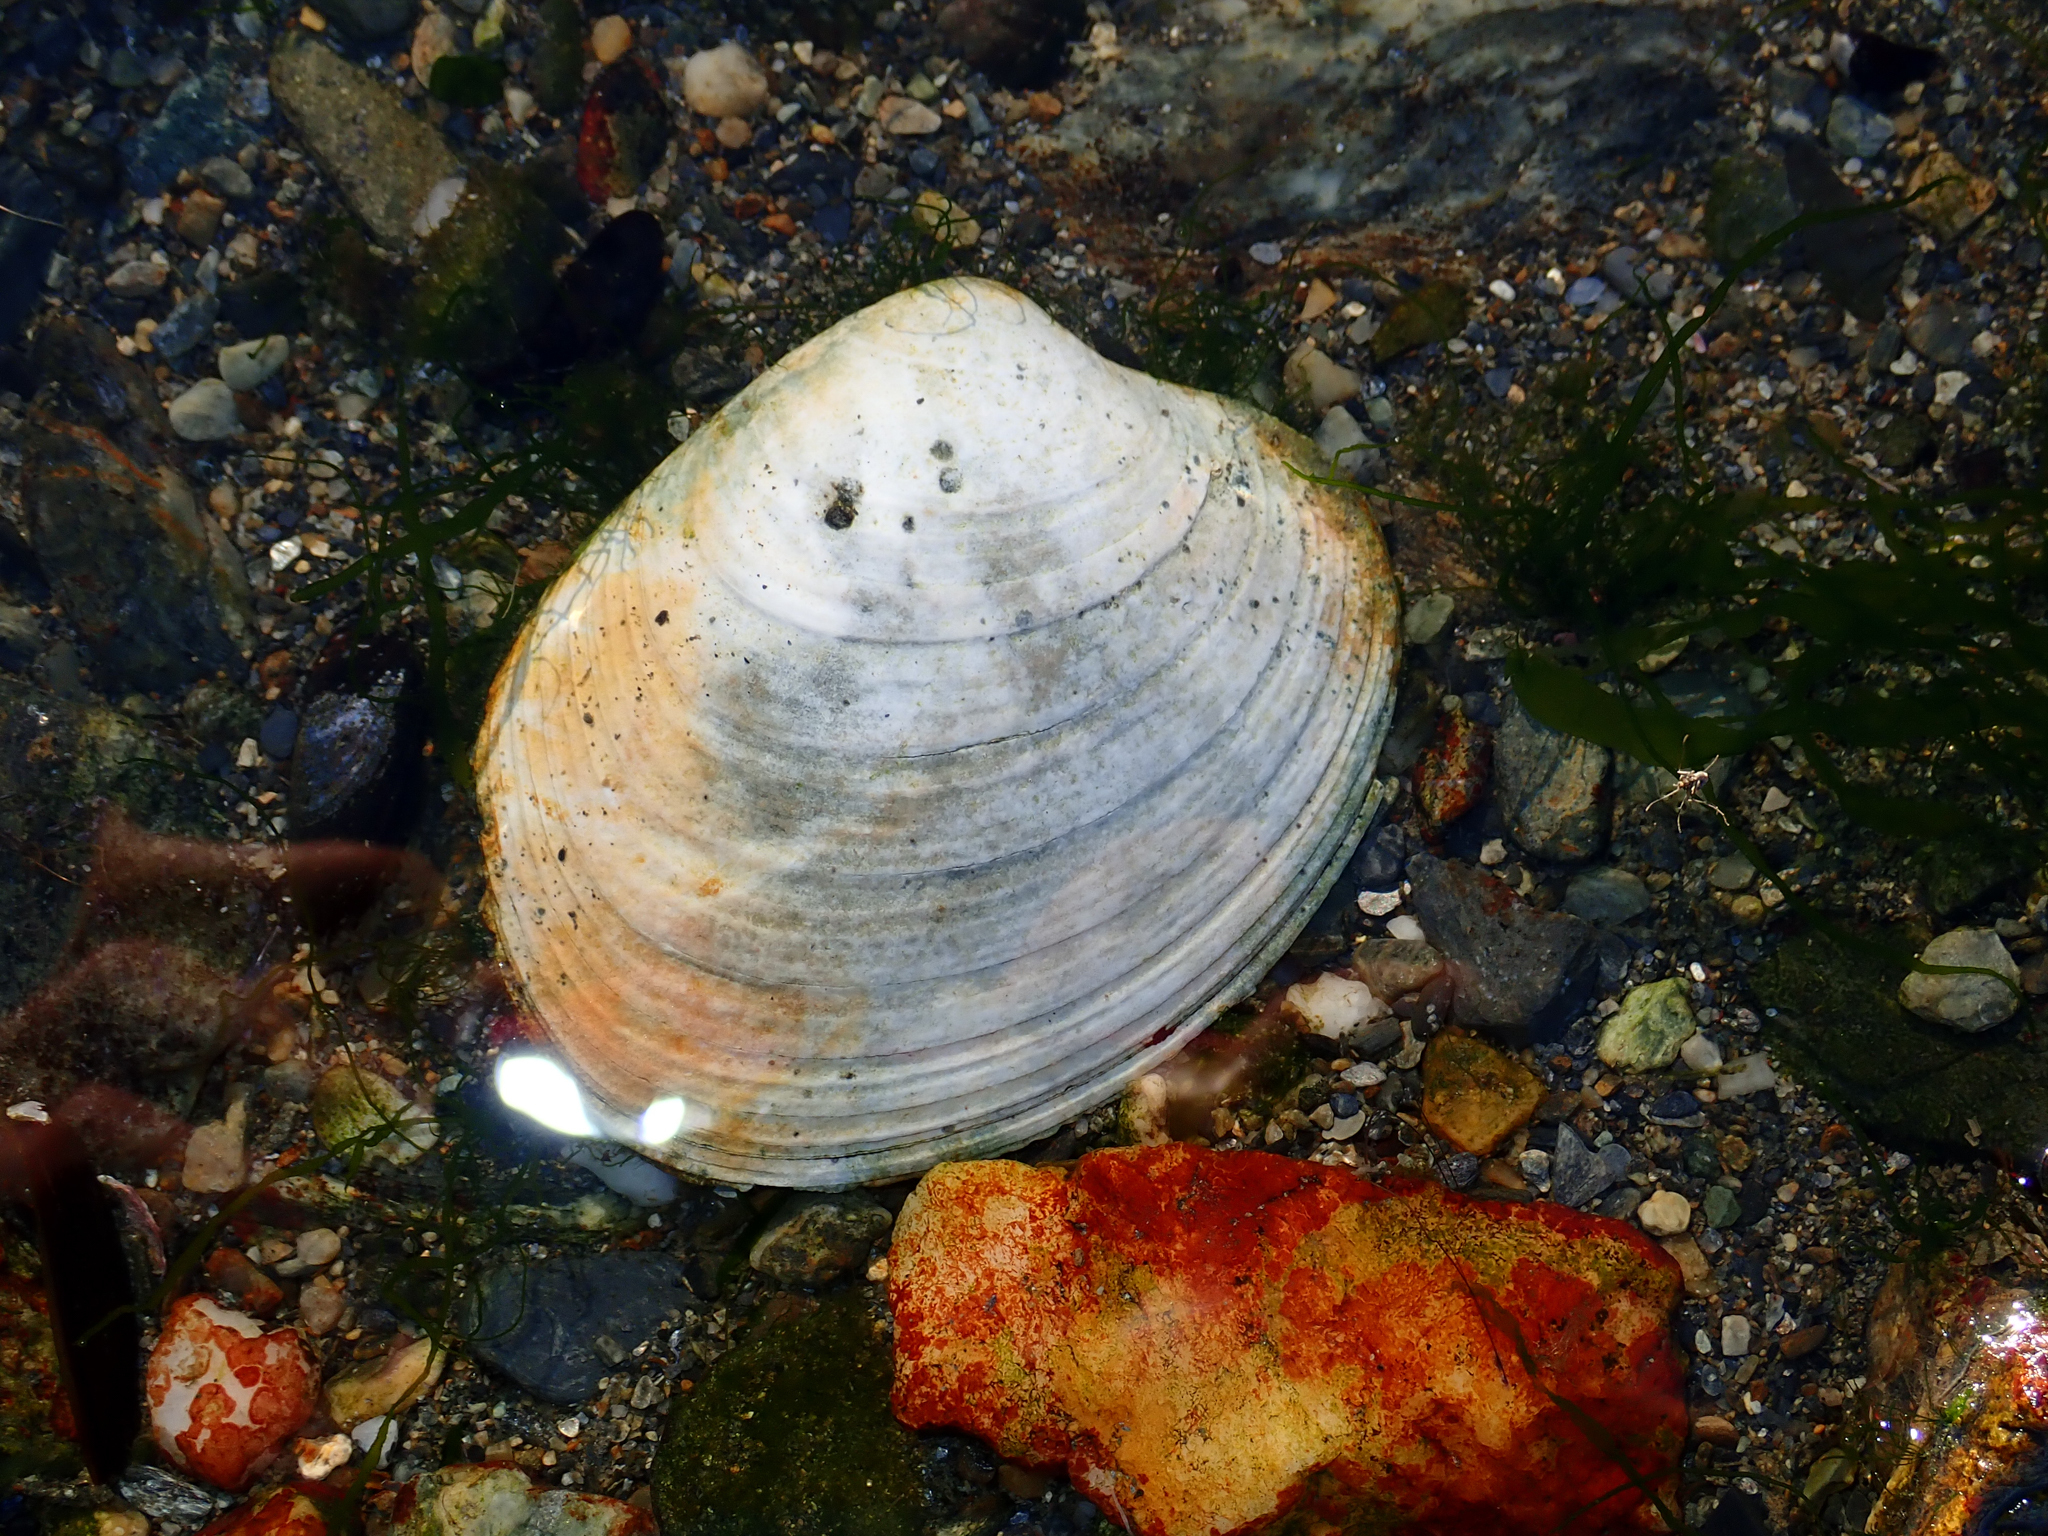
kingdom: Animalia
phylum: Mollusca
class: Bivalvia
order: Venerida
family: Veneridae
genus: Retrotapes
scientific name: Retrotapes exalbidus
